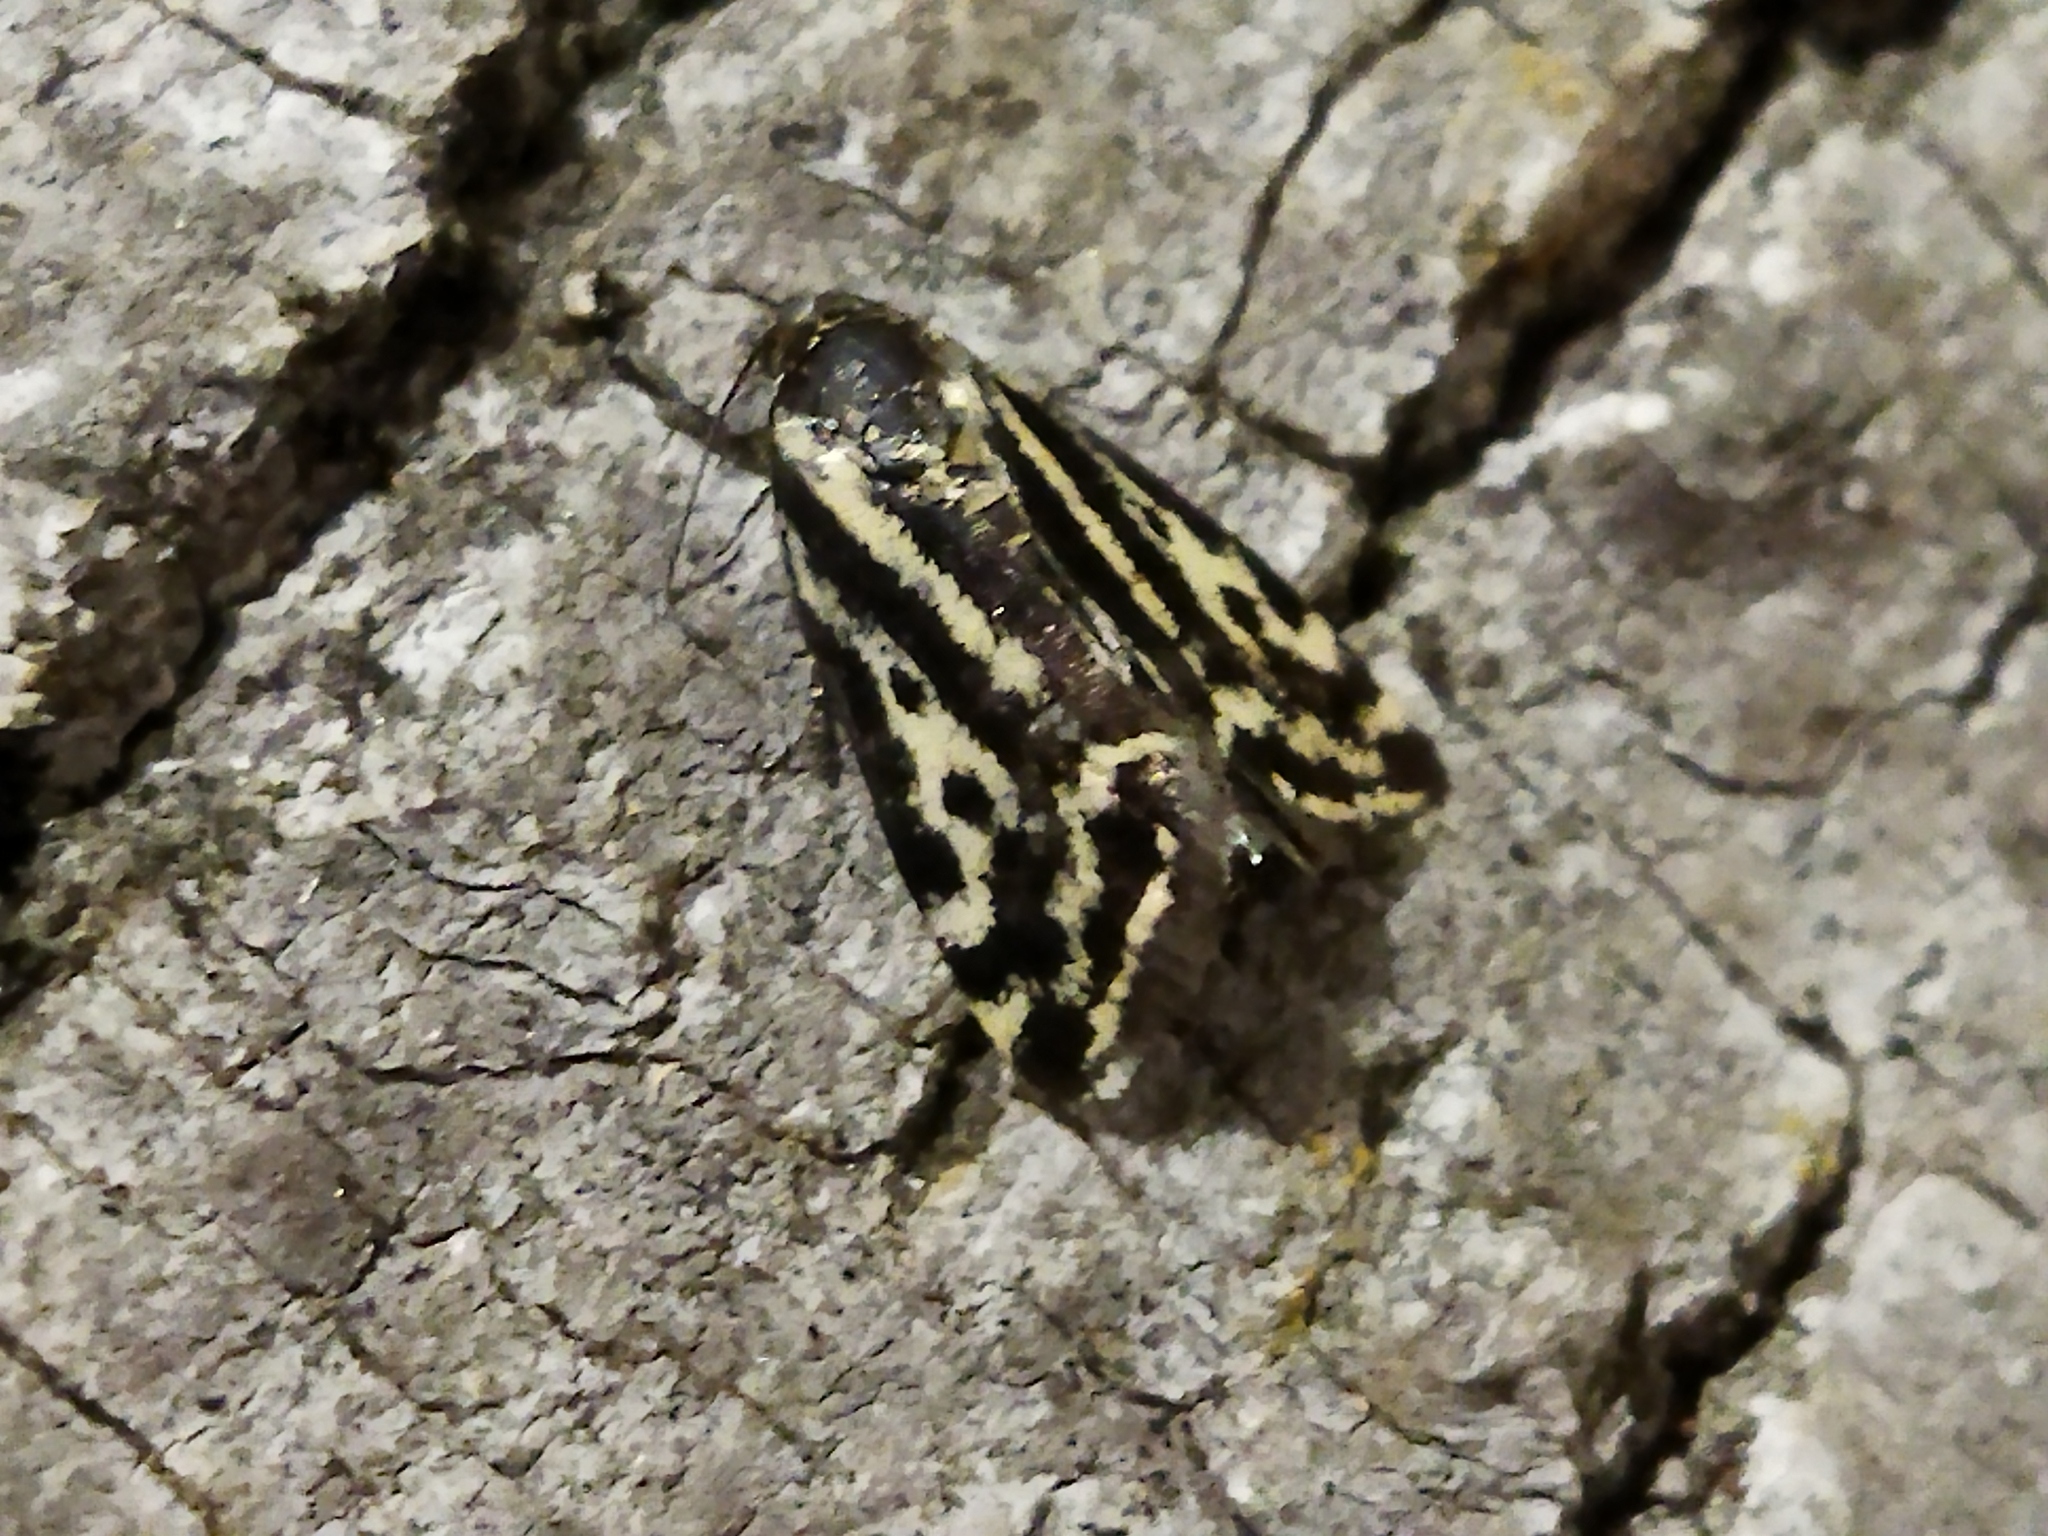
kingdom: Animalia
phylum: Arthropoda
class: Insecta
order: Lepidoptera
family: Noctuidae
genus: Acontia
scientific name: Acontia trabealis
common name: Spotted sulphur
